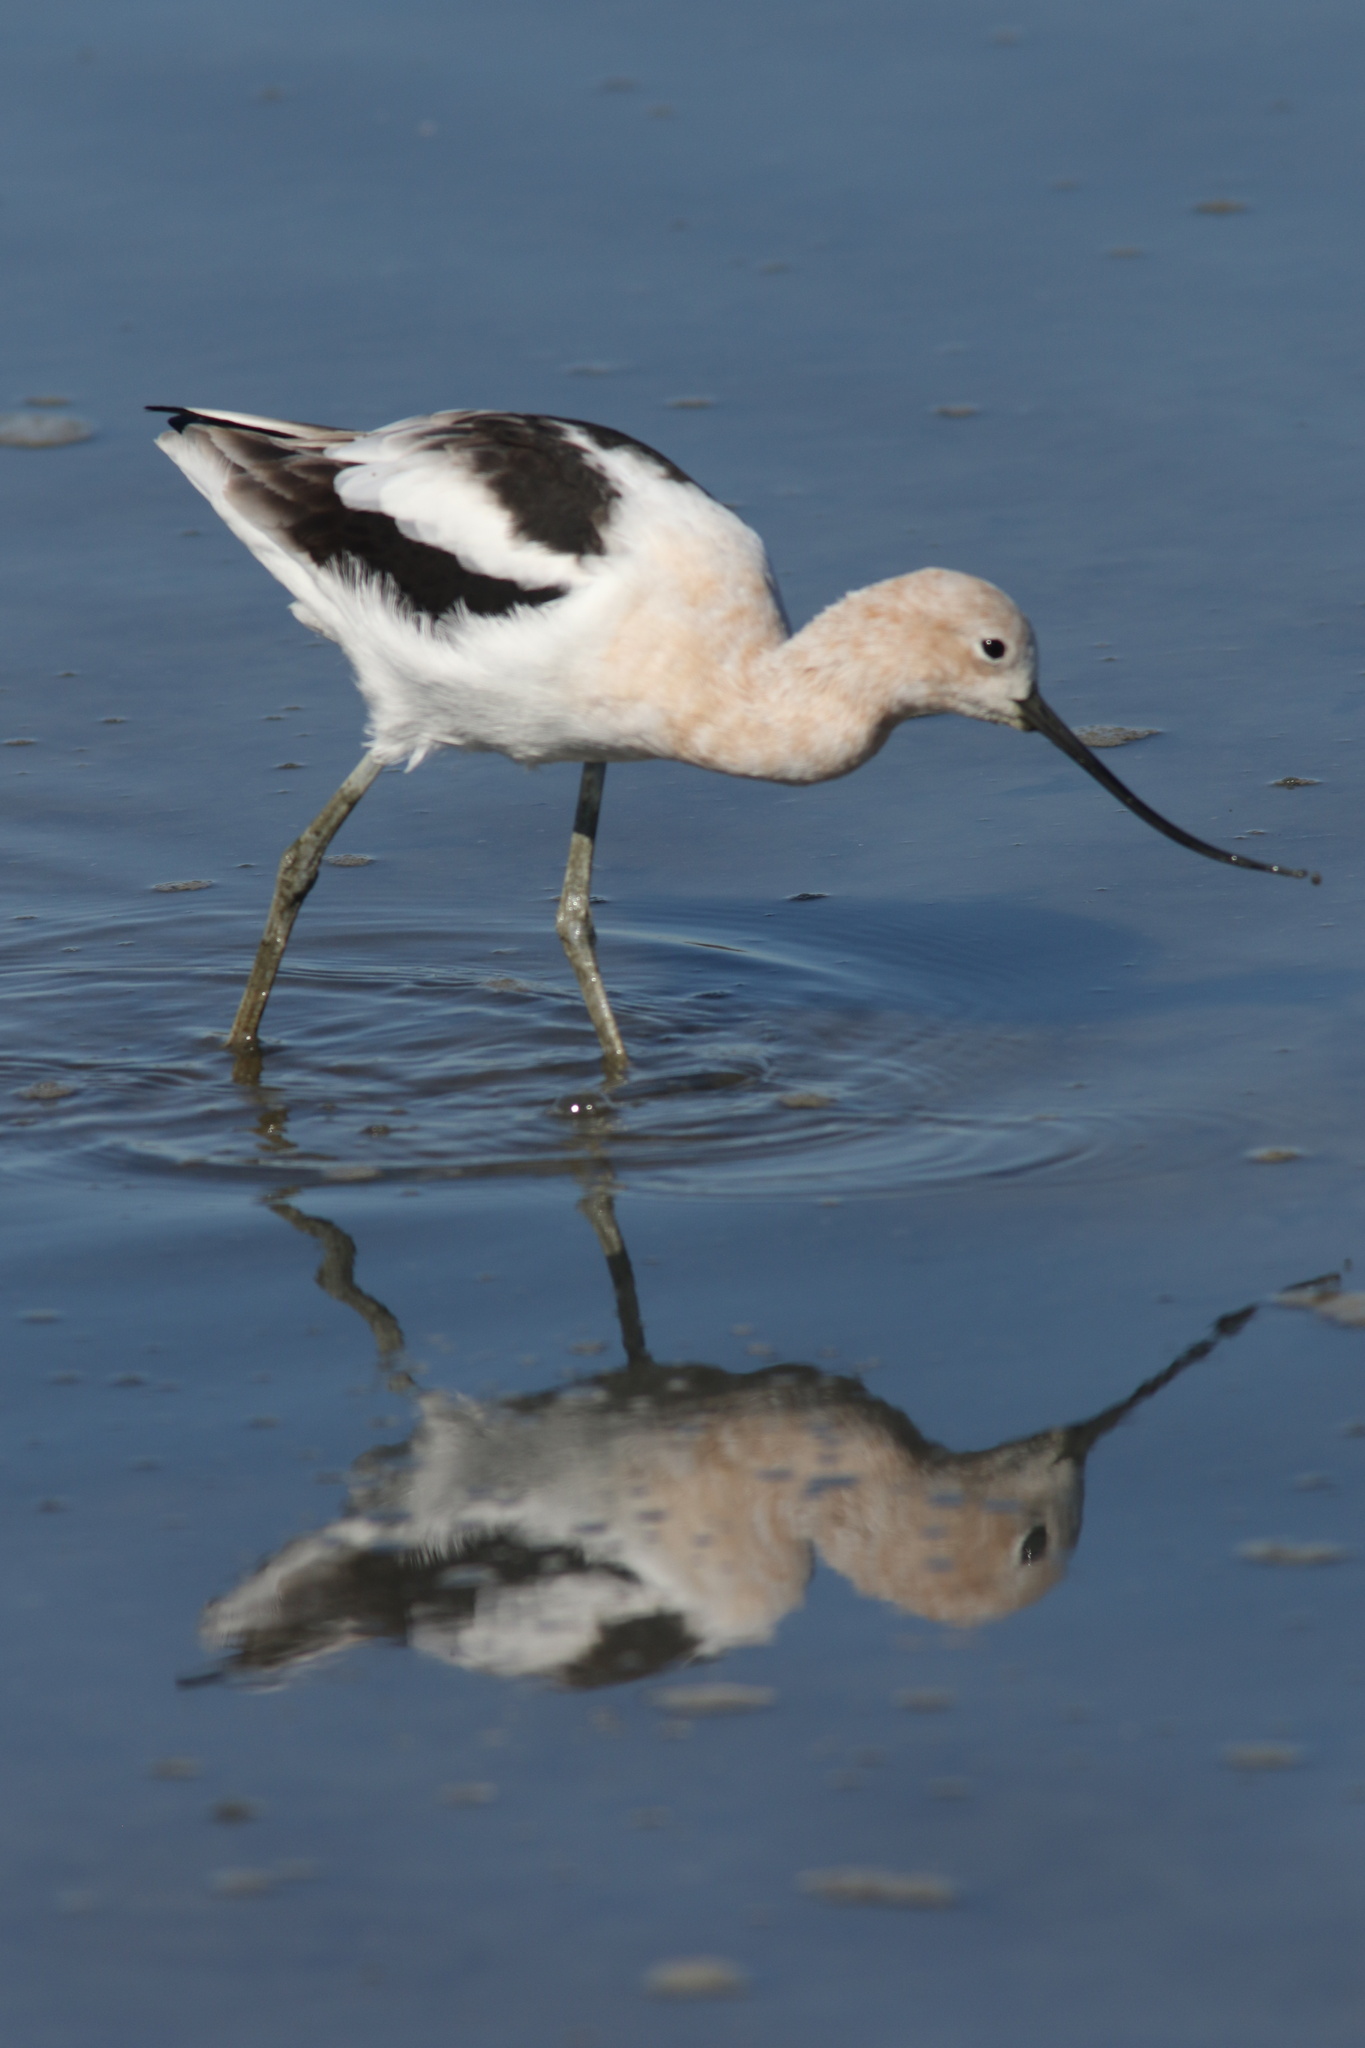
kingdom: Animalia
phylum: Chordata
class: Aves
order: Charadriiformes
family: Recurvirostridae
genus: Recurvirostra
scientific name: Recurvirostra americana
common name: American avocet
